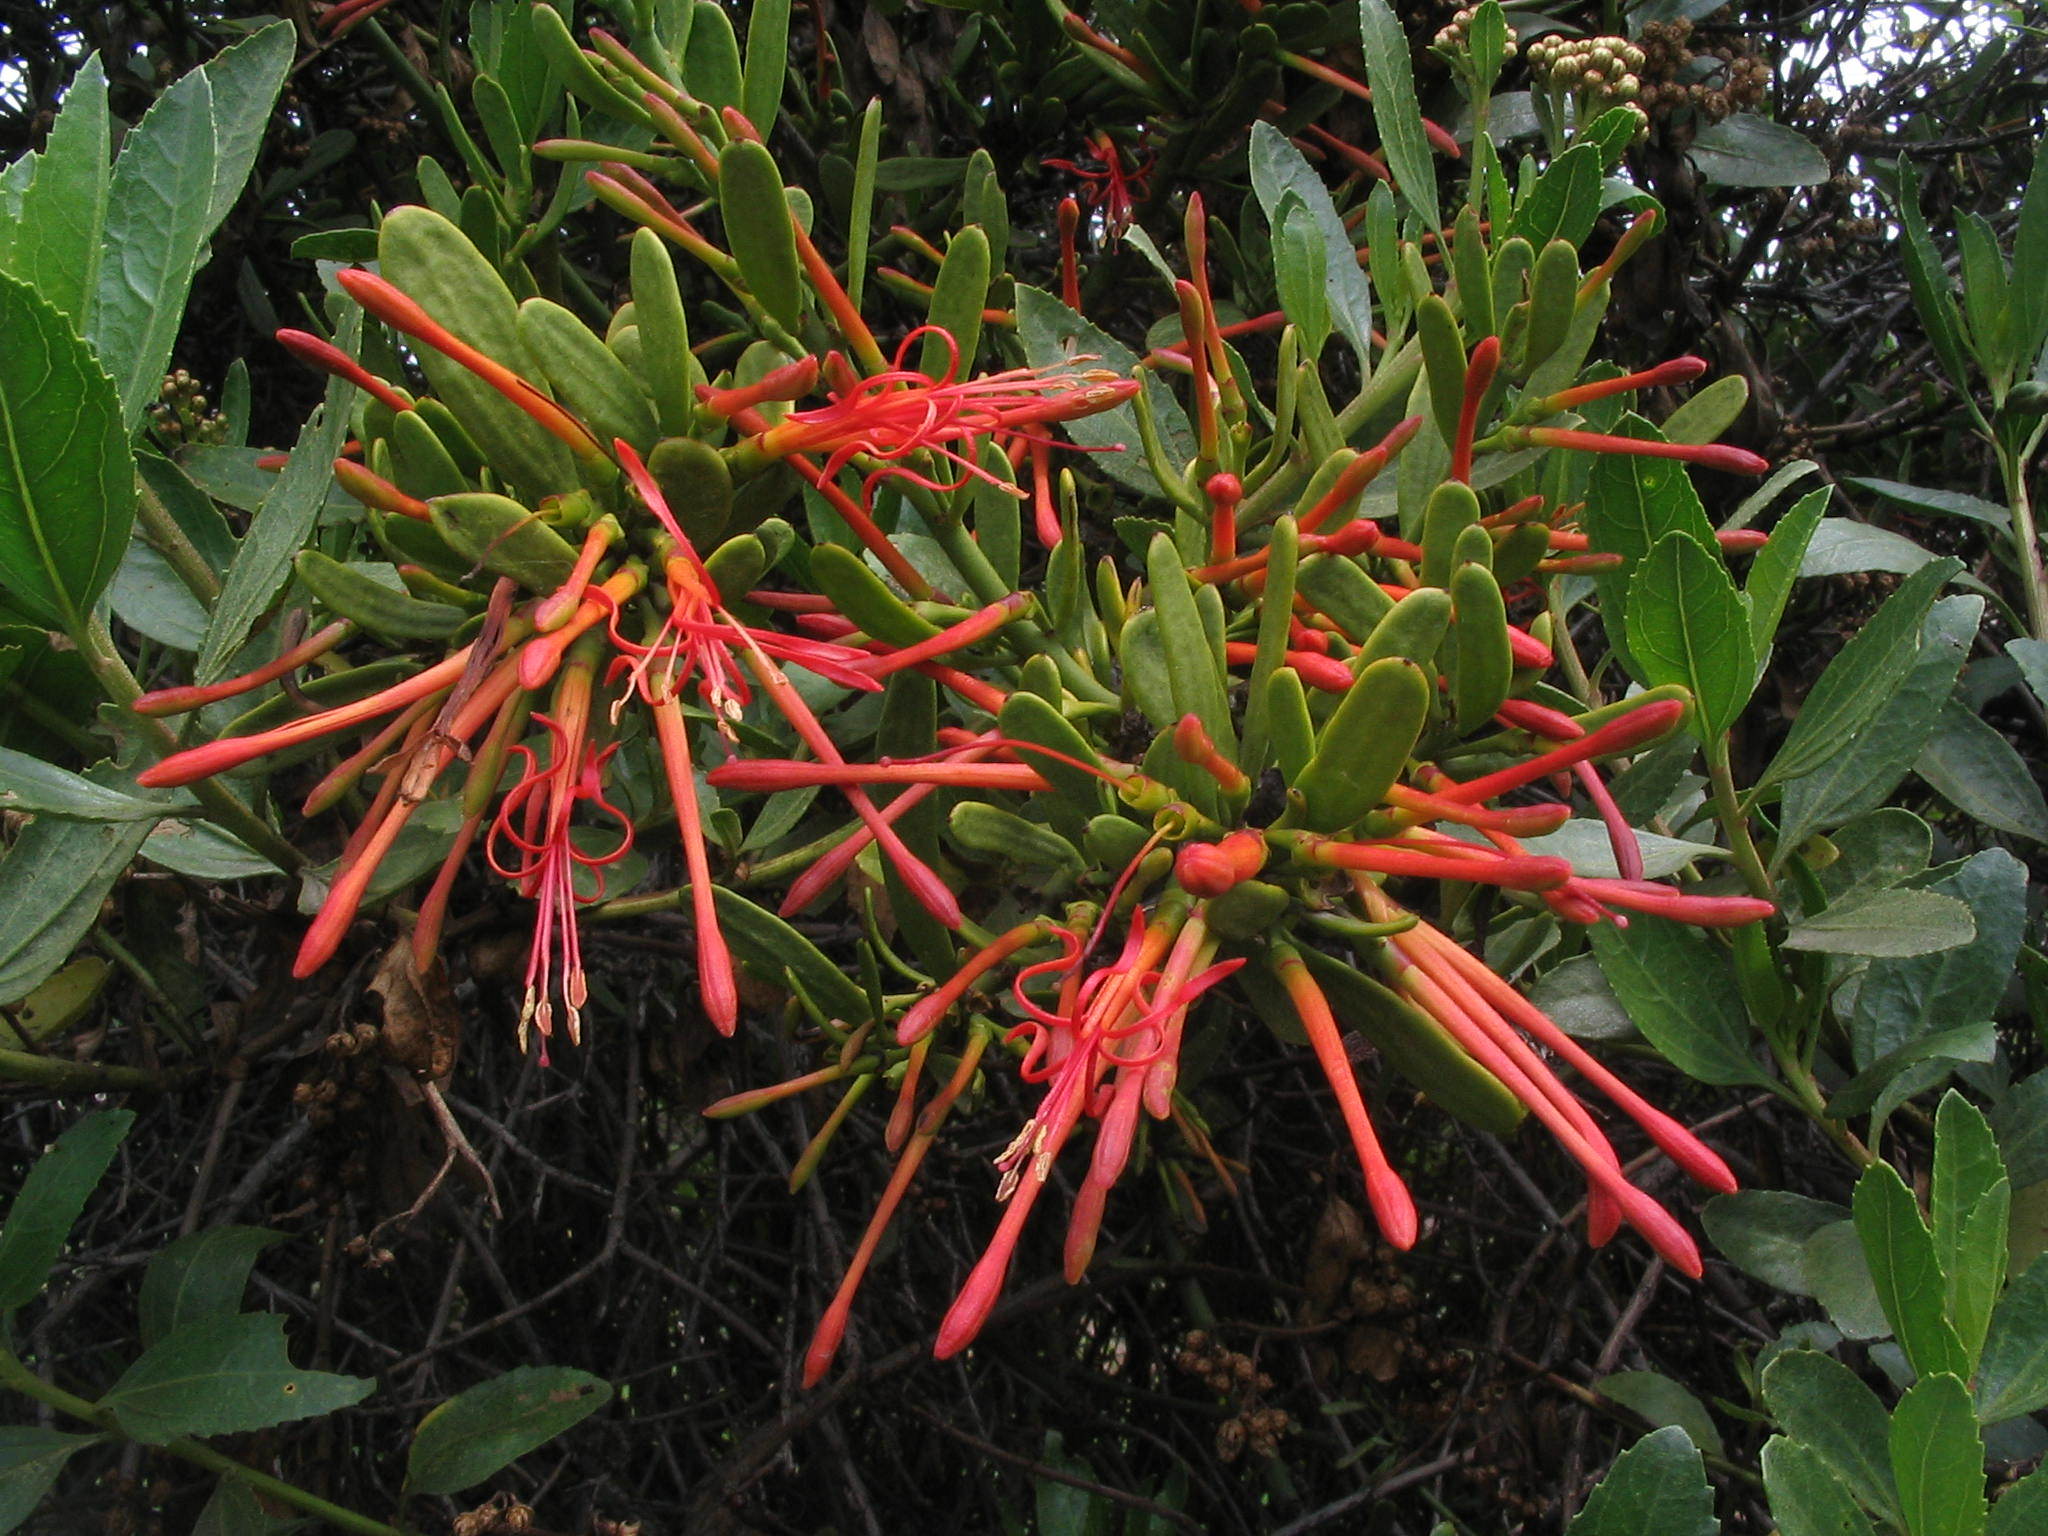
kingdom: Plantae
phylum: Tracheophyta
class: Magnoliopsida
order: Santalales
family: Loranthaceae
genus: Ligaria
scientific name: Ligaria cuneifolia
